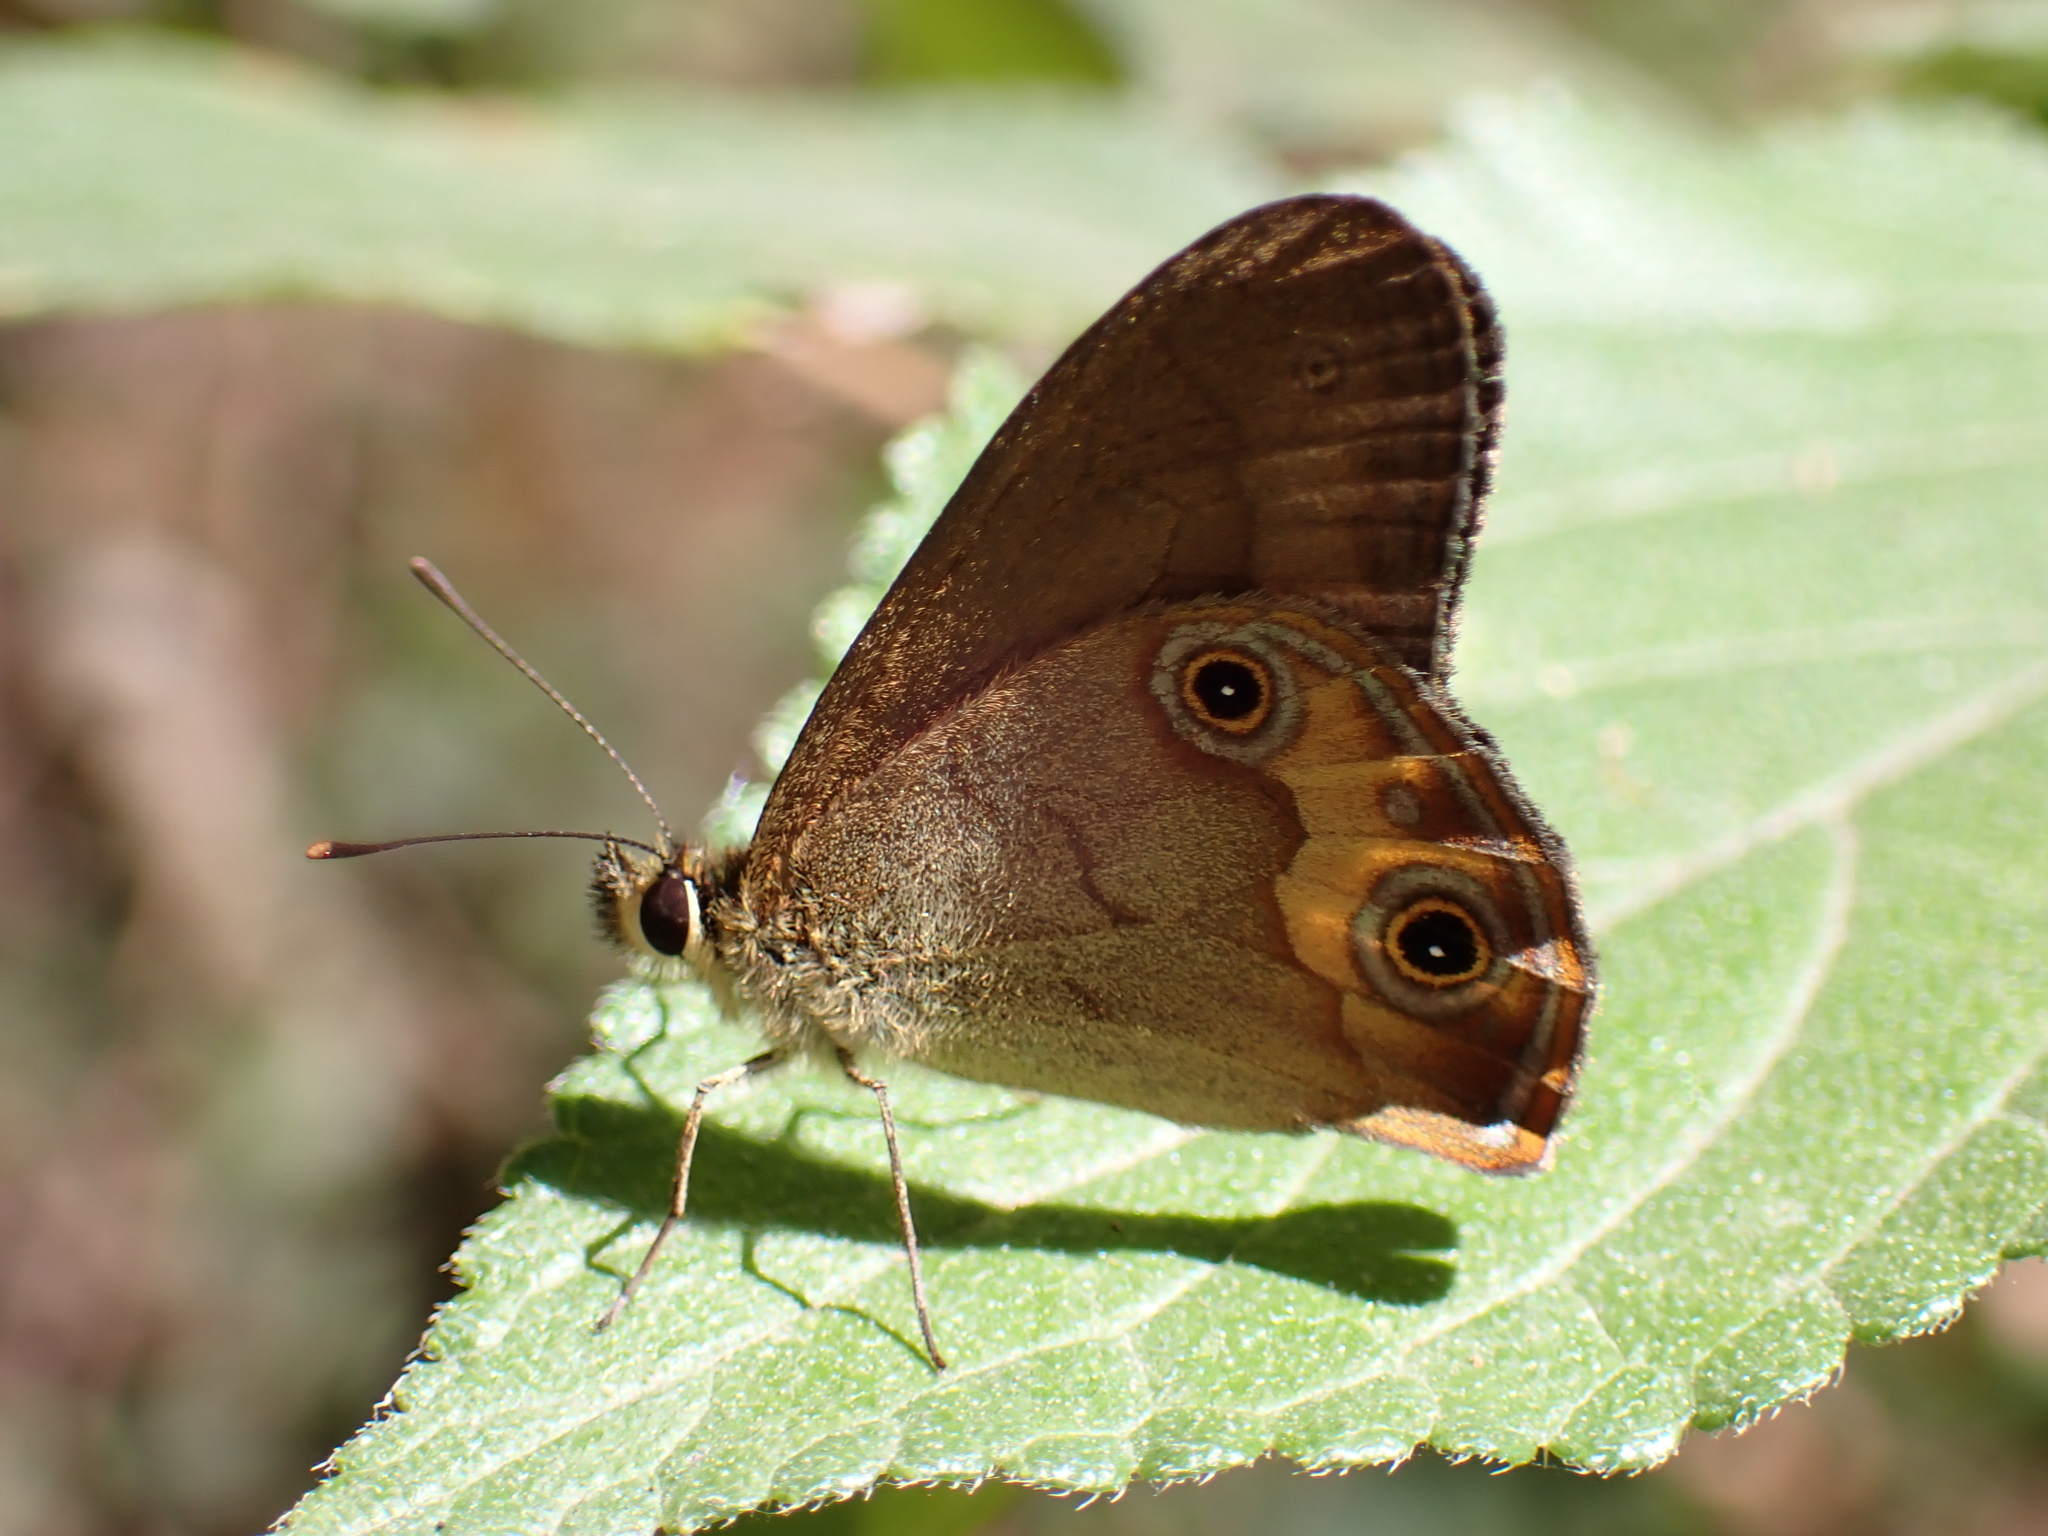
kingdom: Animalia
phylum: Arthropoda
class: Insecta
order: Lepidoptera
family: Nymphalidae
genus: Hypocysta
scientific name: Hypocysta metirius
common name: Brown ringlet
